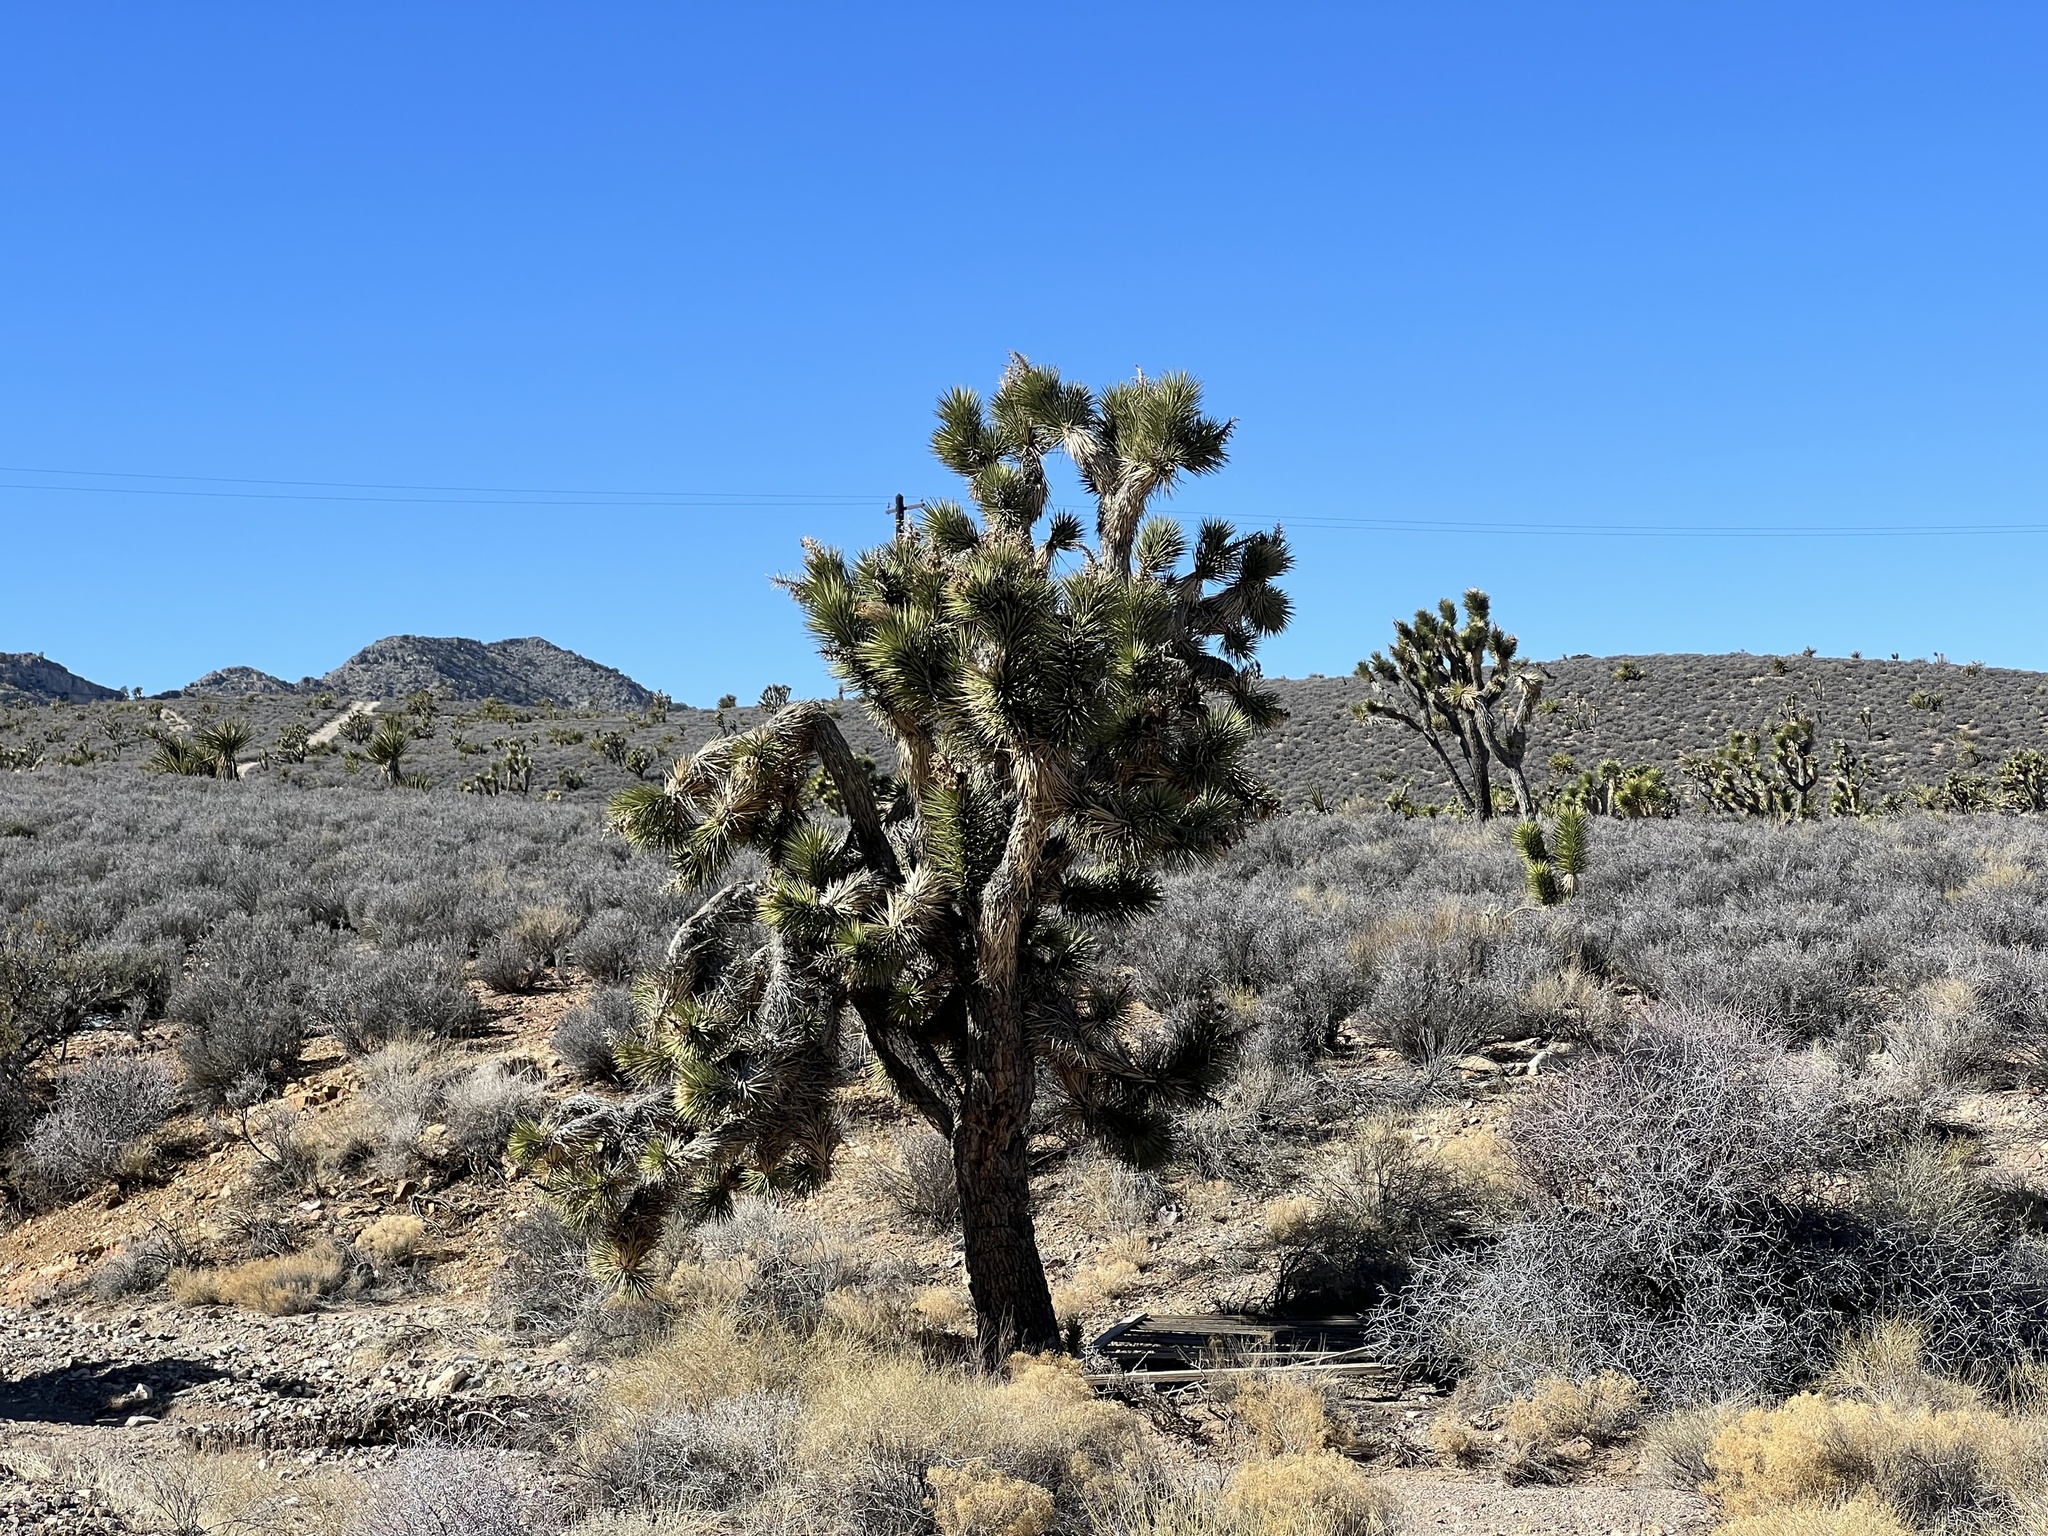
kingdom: Plantae
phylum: Tracheophyta
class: Liliopsida
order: Asparagales
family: Asparagaceae
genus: Yucca
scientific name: Yucca brevifolia
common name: Joshua tree
